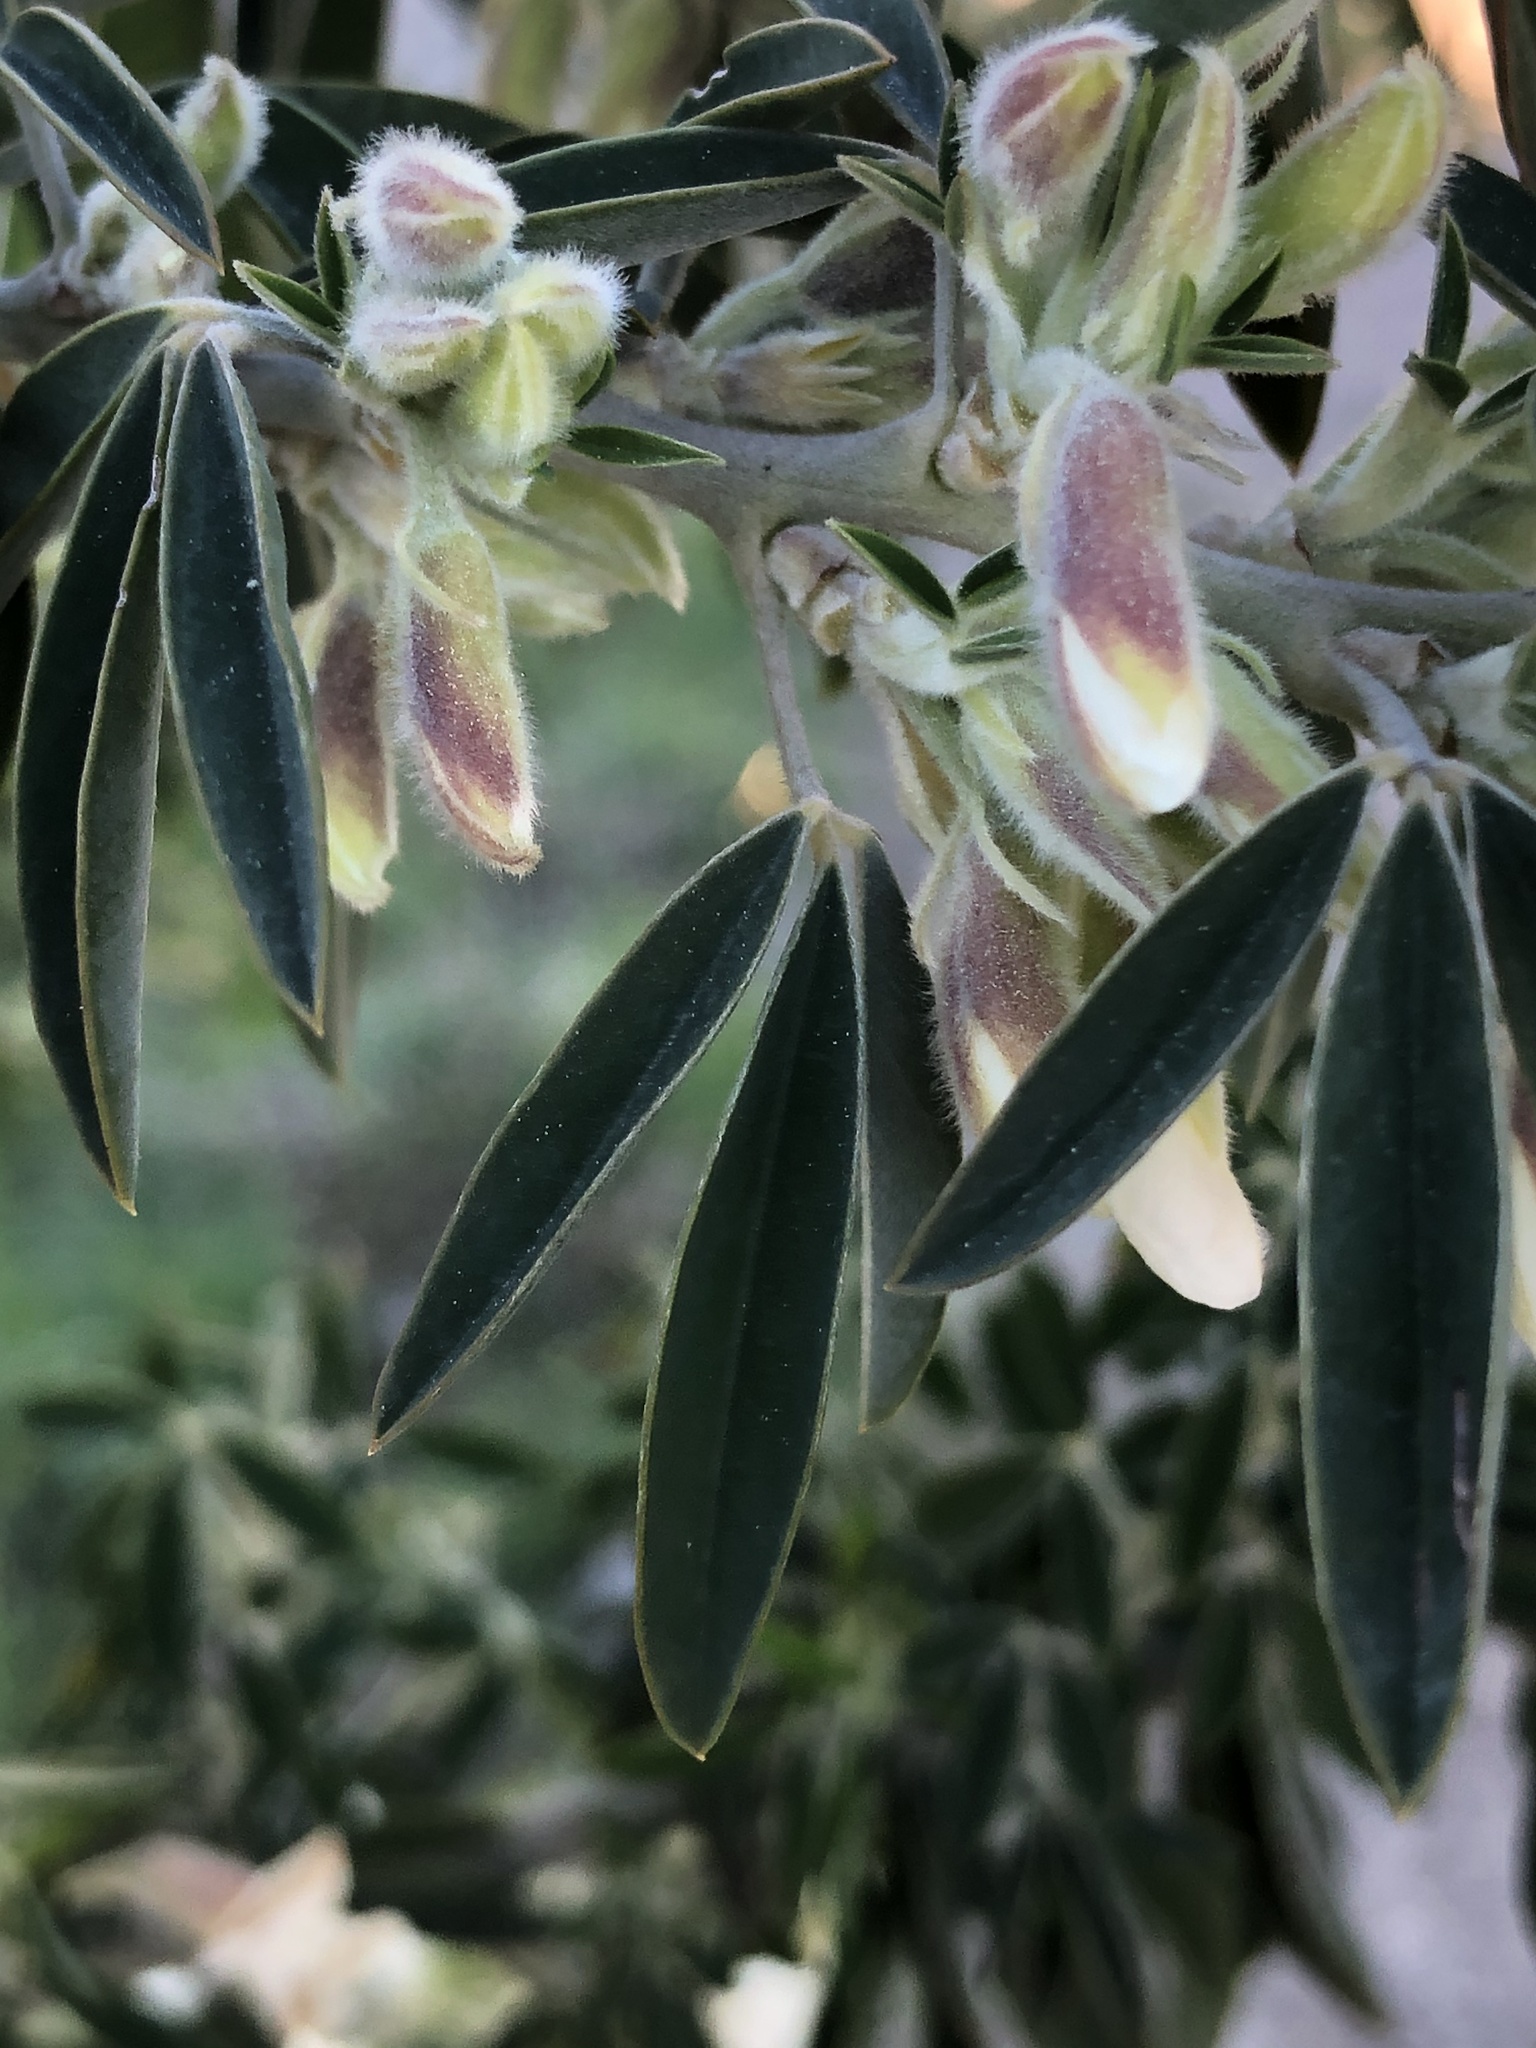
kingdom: Plantae
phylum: Tracheophyta
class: Magnoliopsida
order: Fabales
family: Fabaceae
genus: Chamaecytisus
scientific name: Chamaecytisus prolifer
